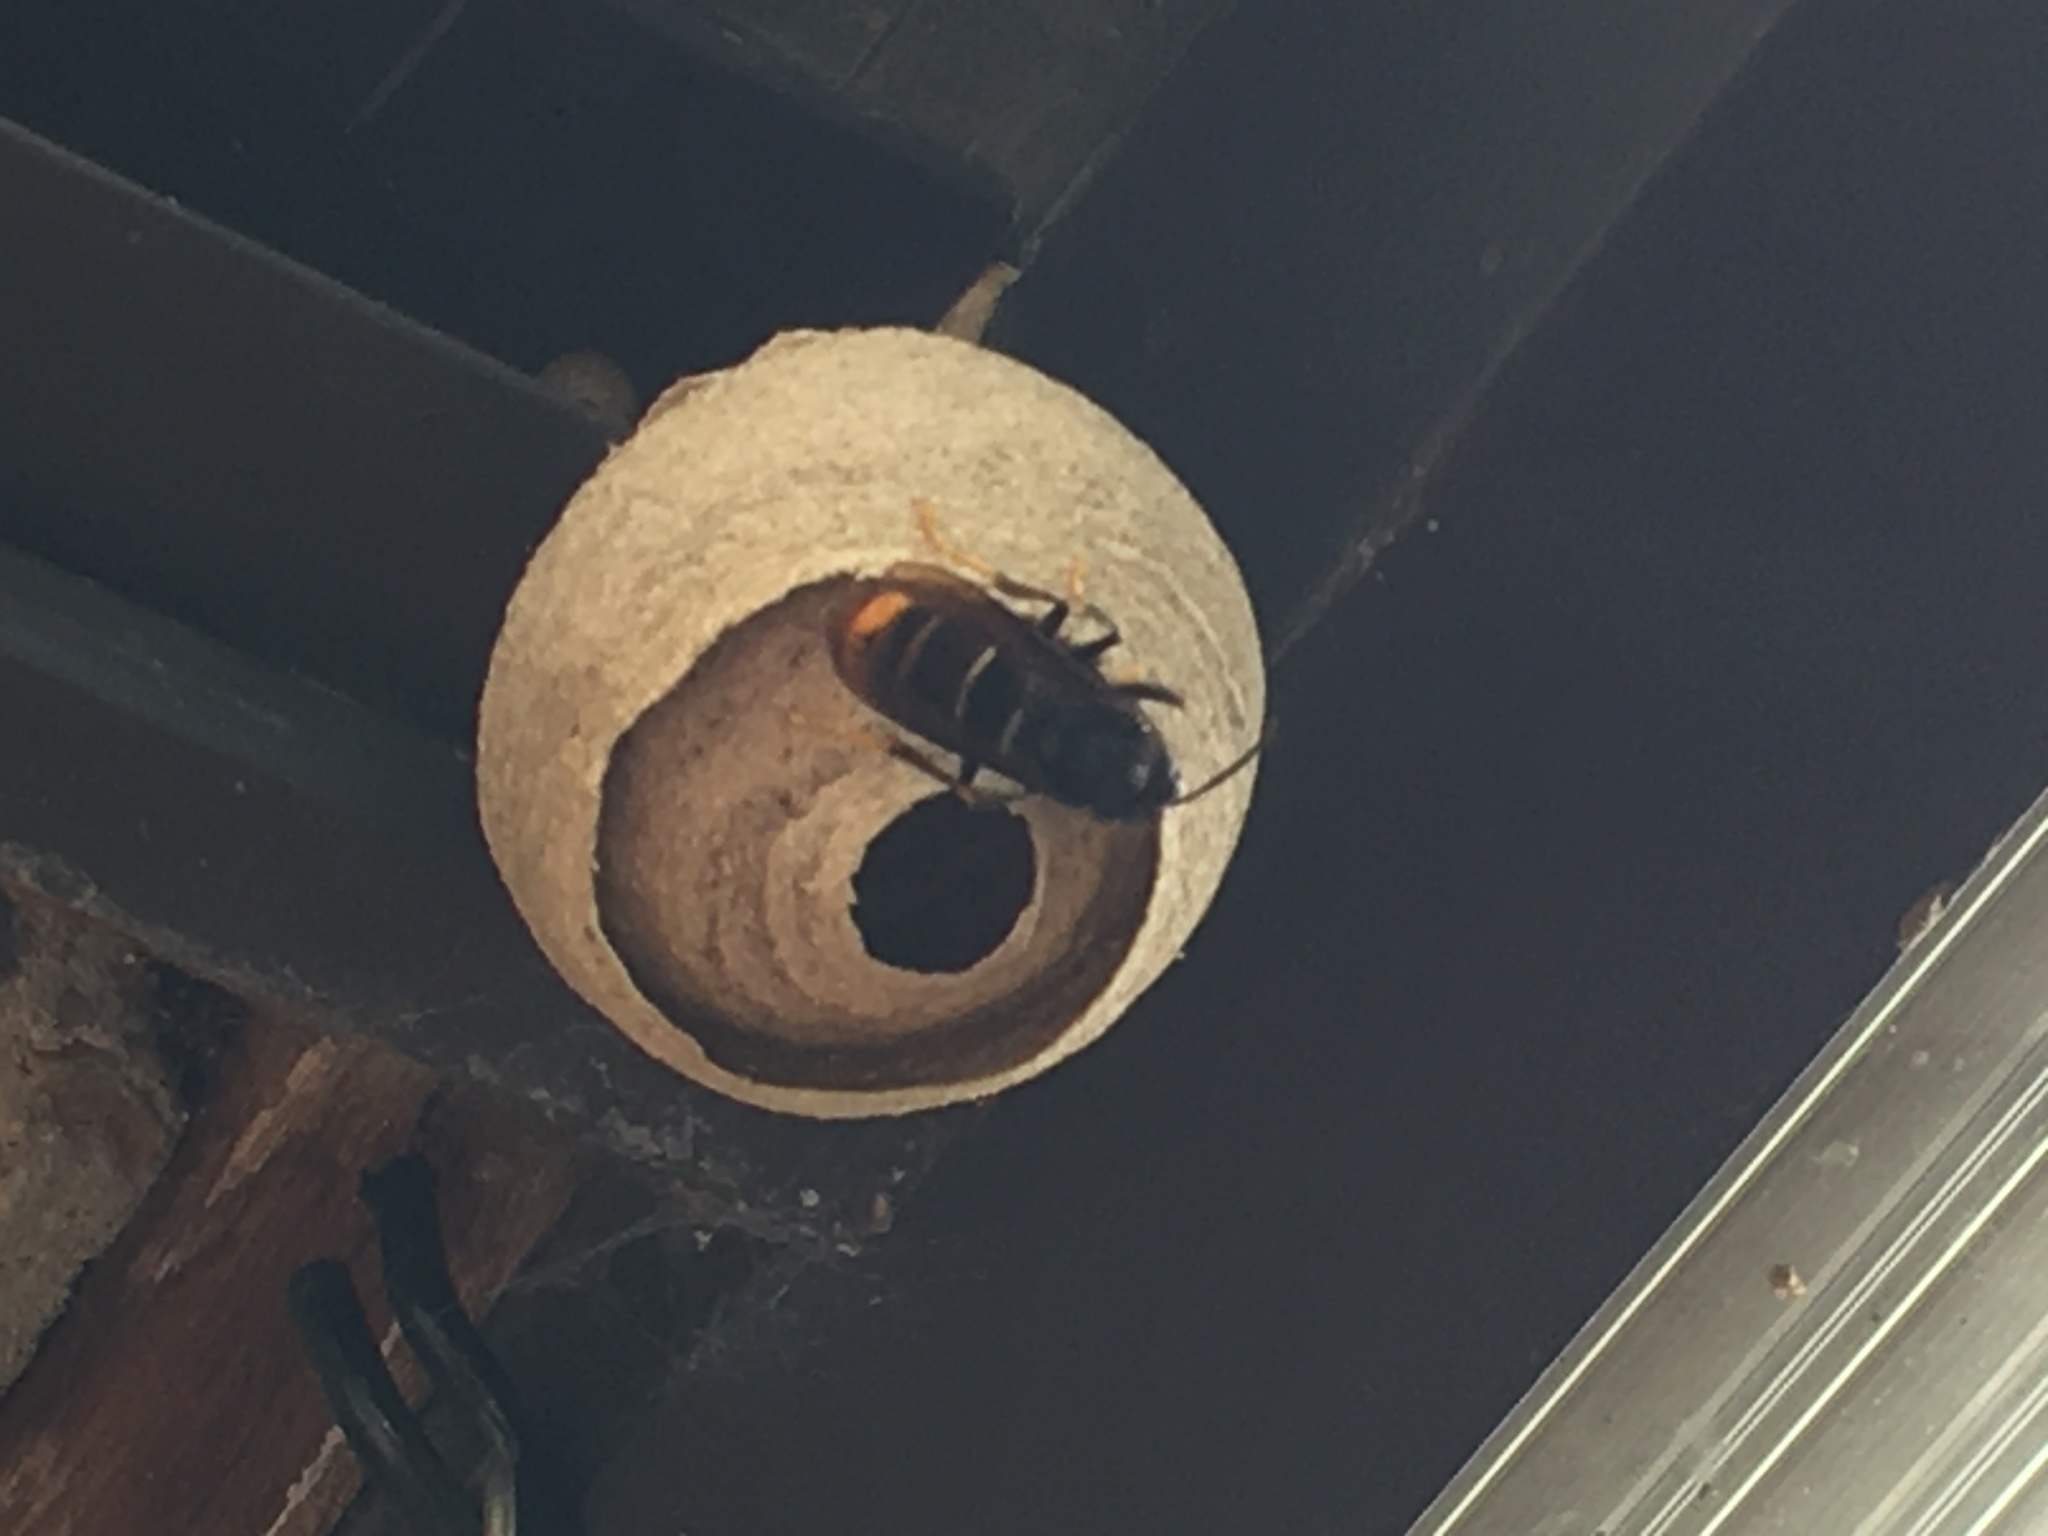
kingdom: Animalia
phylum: Arthropoda
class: Insecta
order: Hymenoptera
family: Vespidae
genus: Vespa
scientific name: Vespa velutina
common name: Asian hornet
